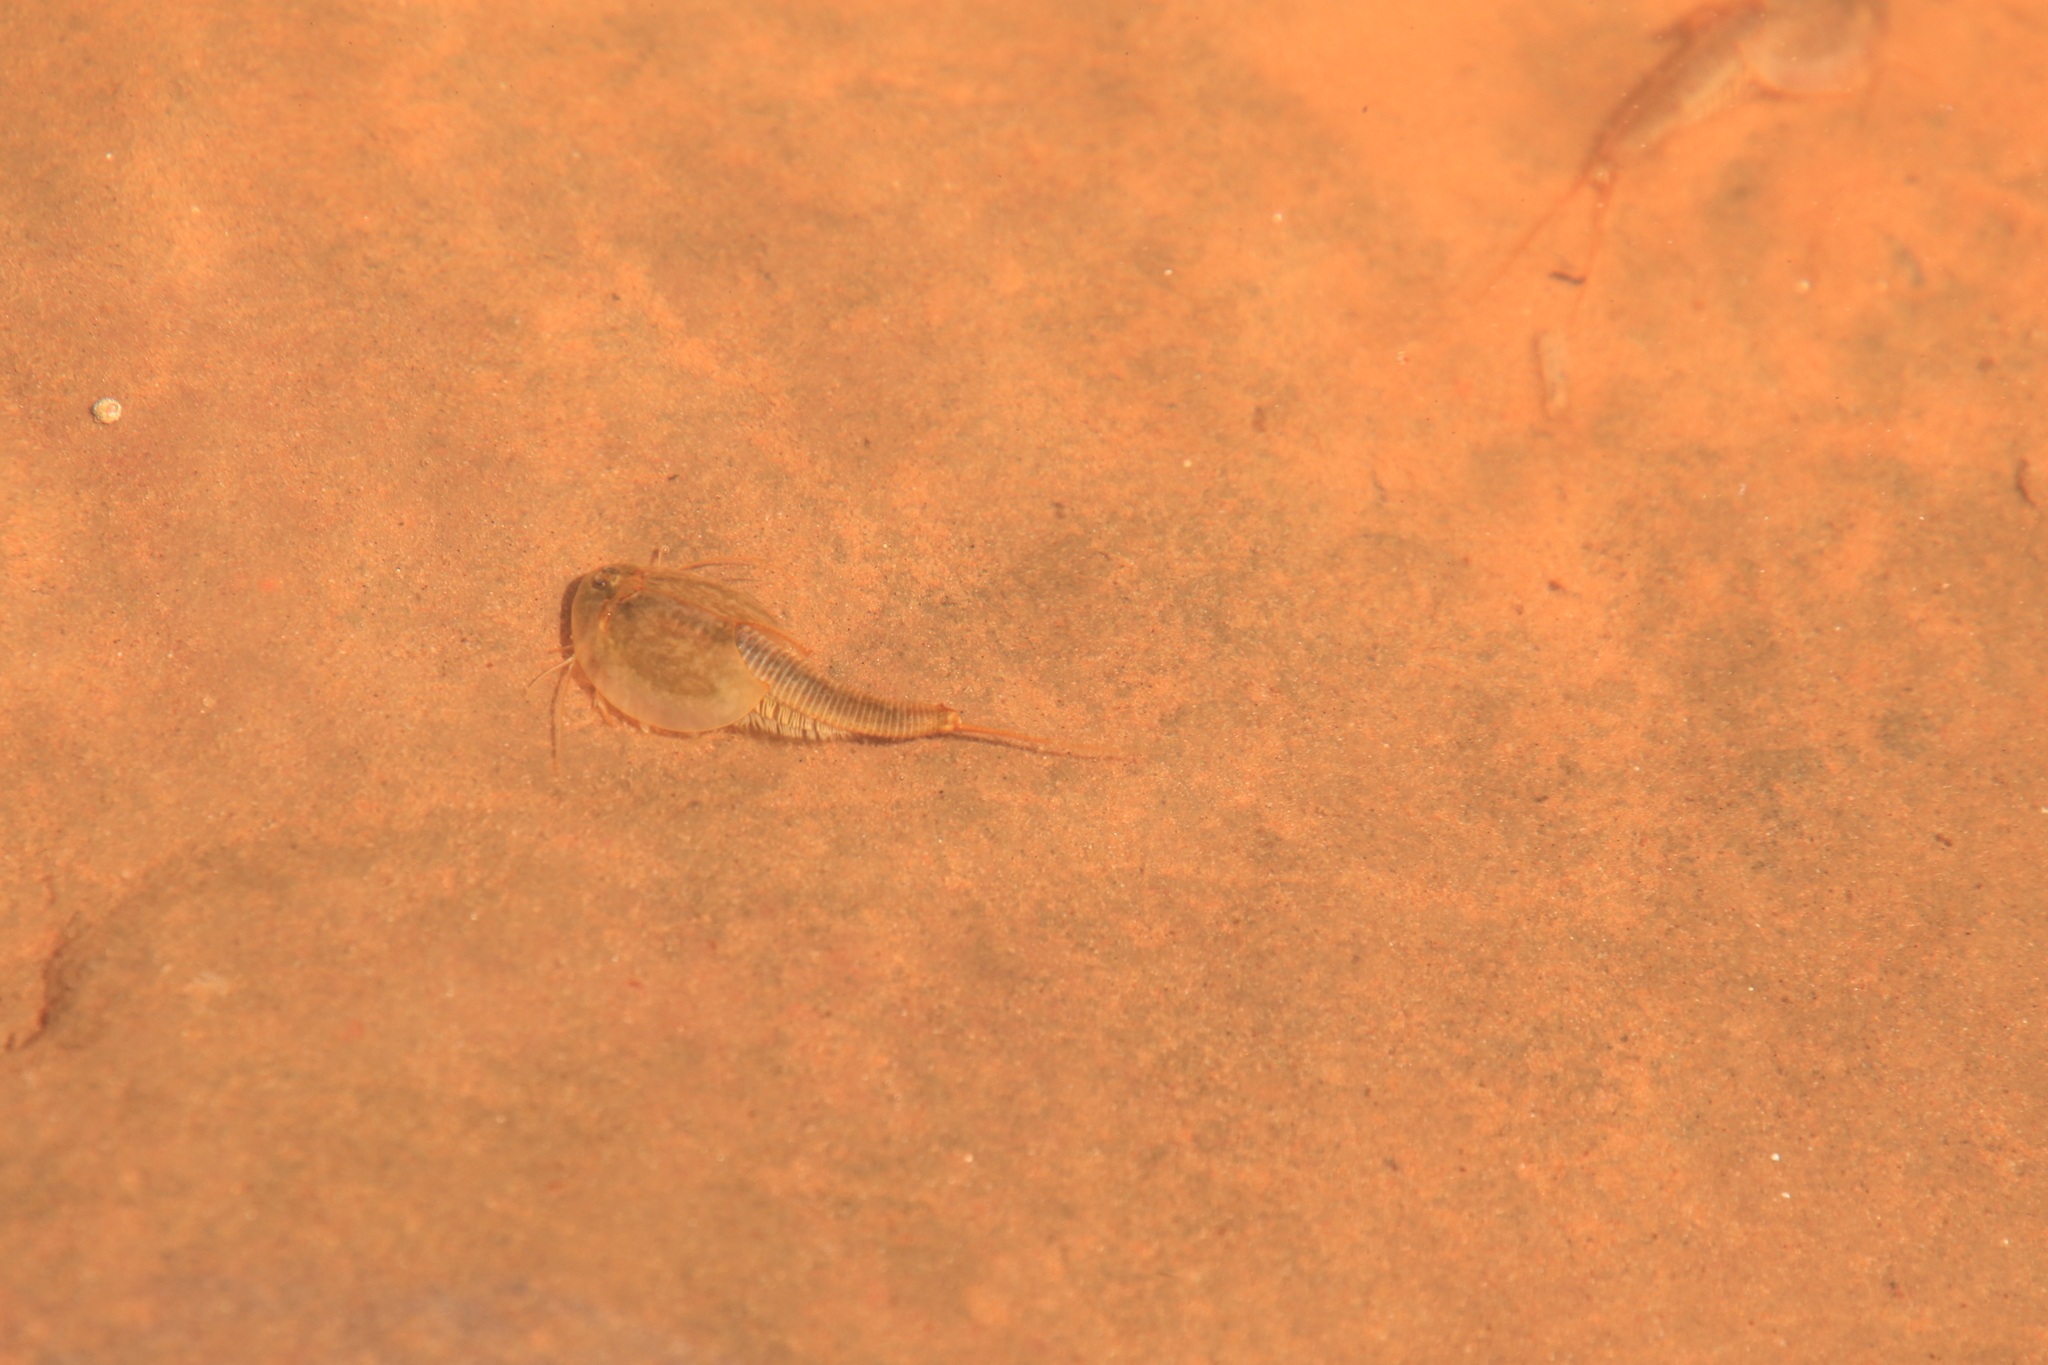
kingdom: Animalia
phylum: Arthropoda
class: Branchiopoda
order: Notostraca
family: Triopsidae
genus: Triops
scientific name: Triops longicaudatus
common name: Summer tadpole shrimp
